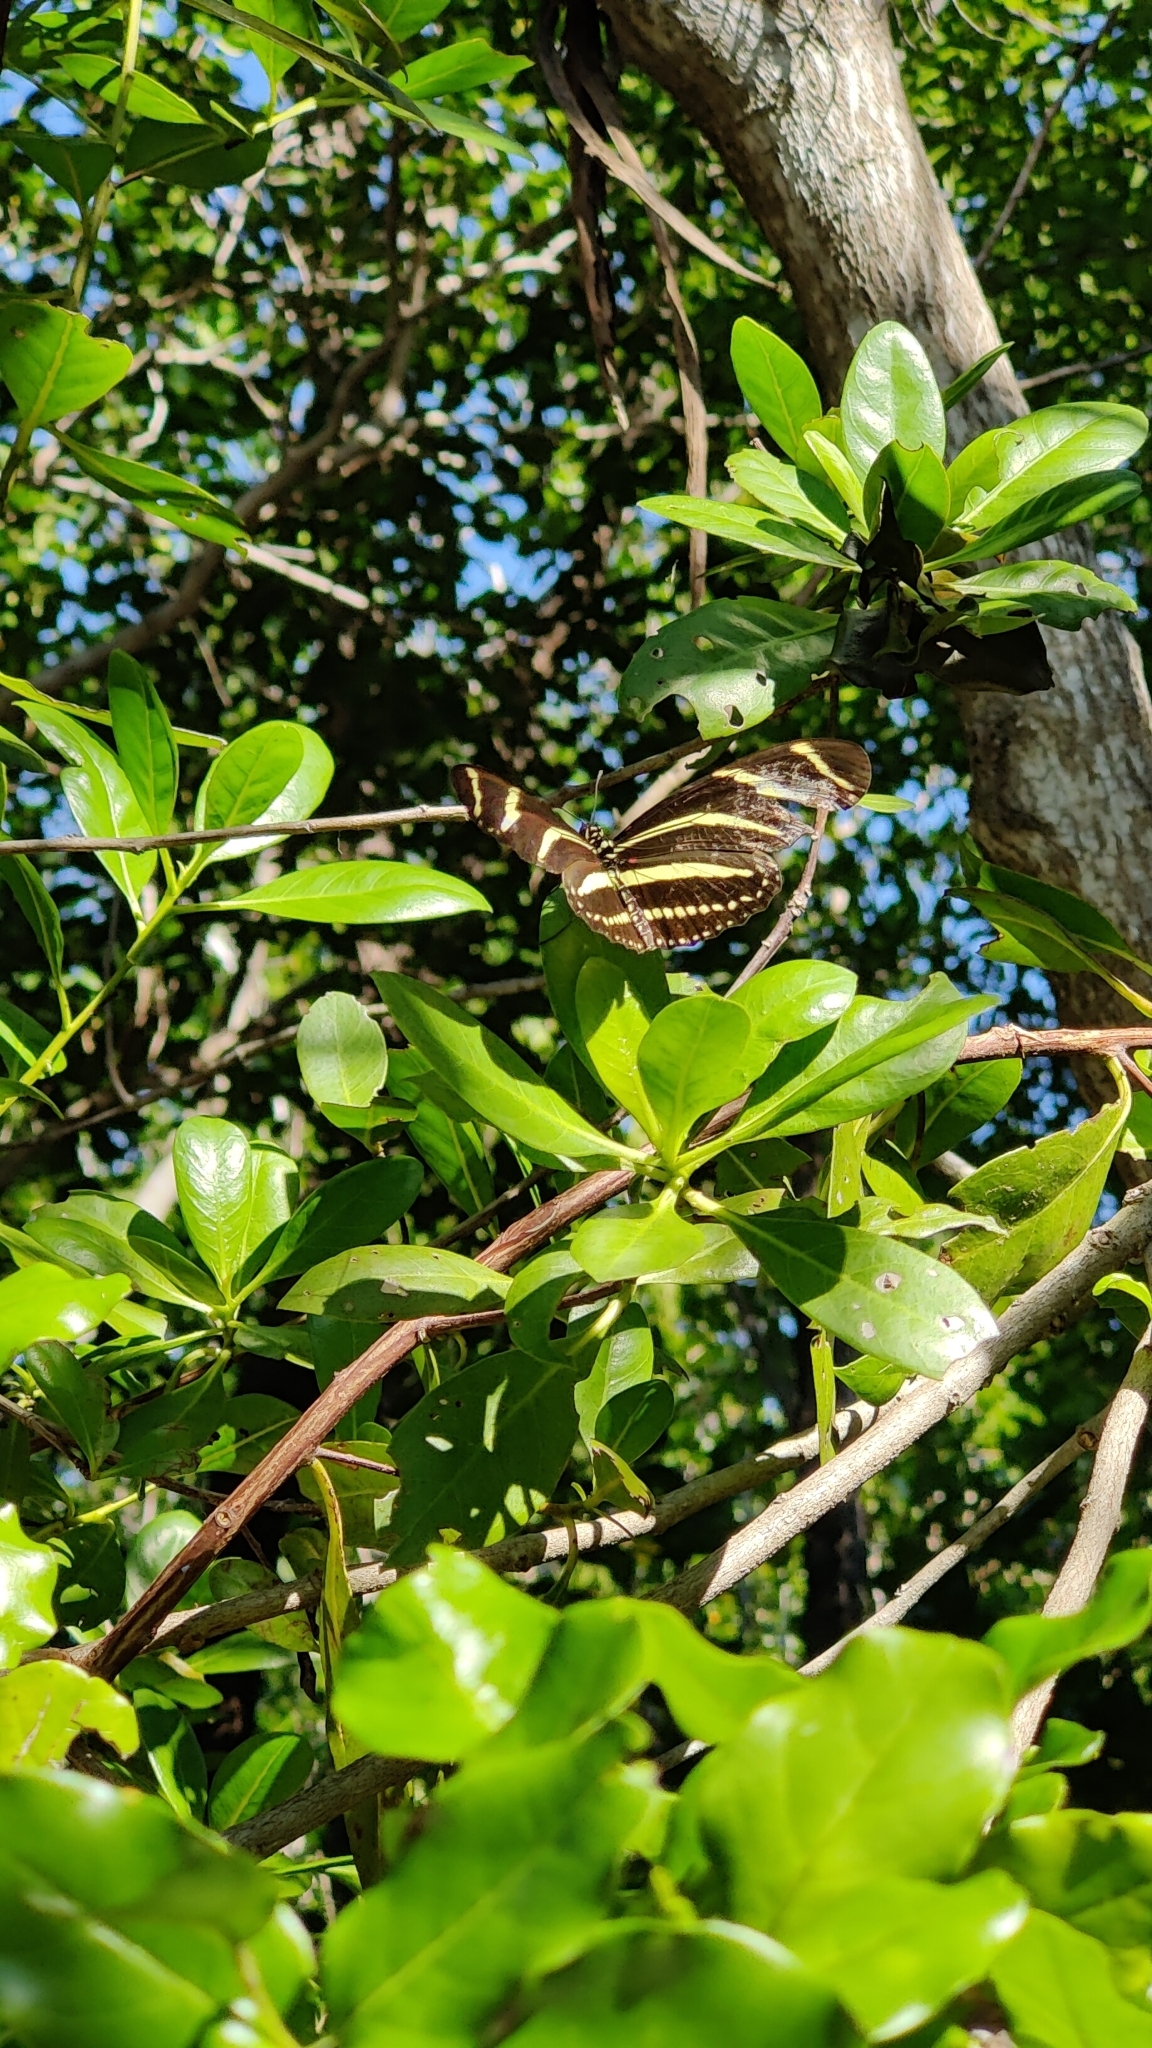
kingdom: Animalia
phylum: Arthropoda
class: Insecta
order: Lepidoptera
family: Nymphalidae
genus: Heliconius
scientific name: Heliconius charithonia
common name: Zebra long wing
